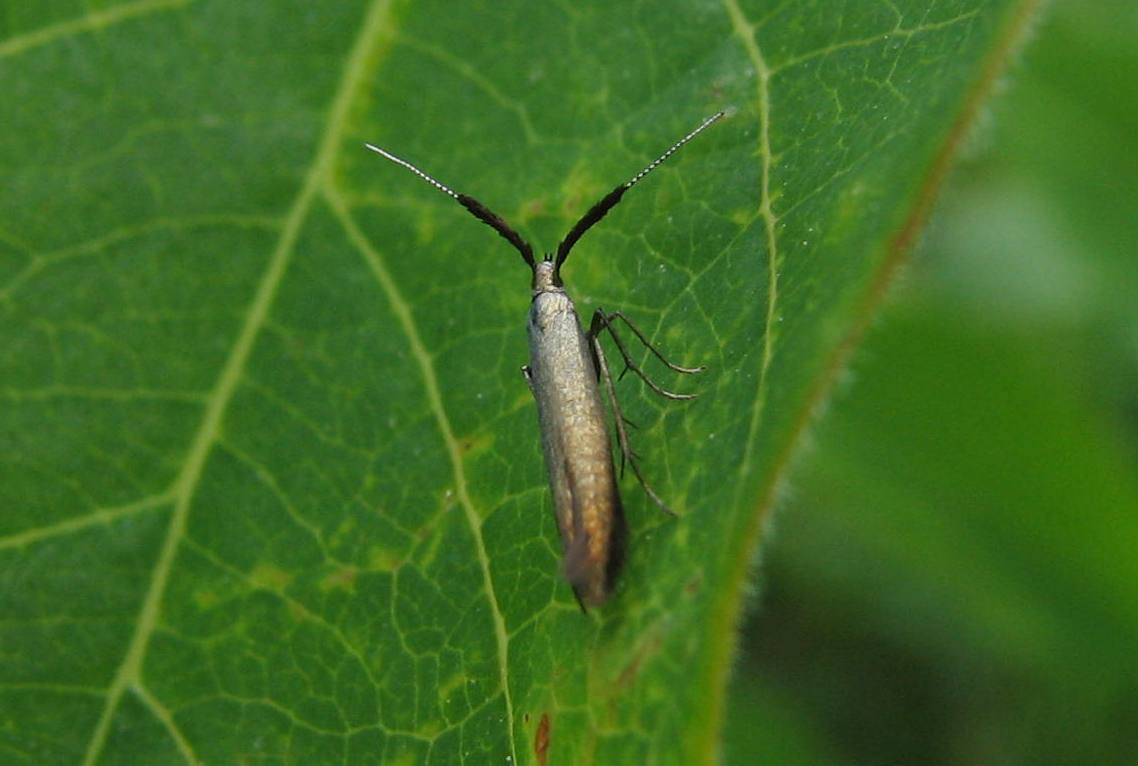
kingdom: Animalia
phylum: Arthropoda
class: Insecta
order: Lepidoptera
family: Coleophoridae
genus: Coleophora
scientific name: Coleophora mayrella
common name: Meadow case-bearer
